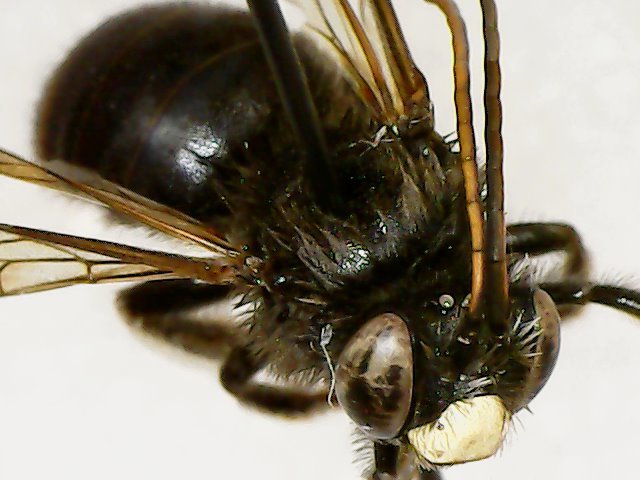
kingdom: Animalia
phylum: Arthropoda
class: Insecta
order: Hymenoptera
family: Apidae
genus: Melissodes
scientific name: Melissodes bimaculatus
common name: Two-spotted long-horned bee
